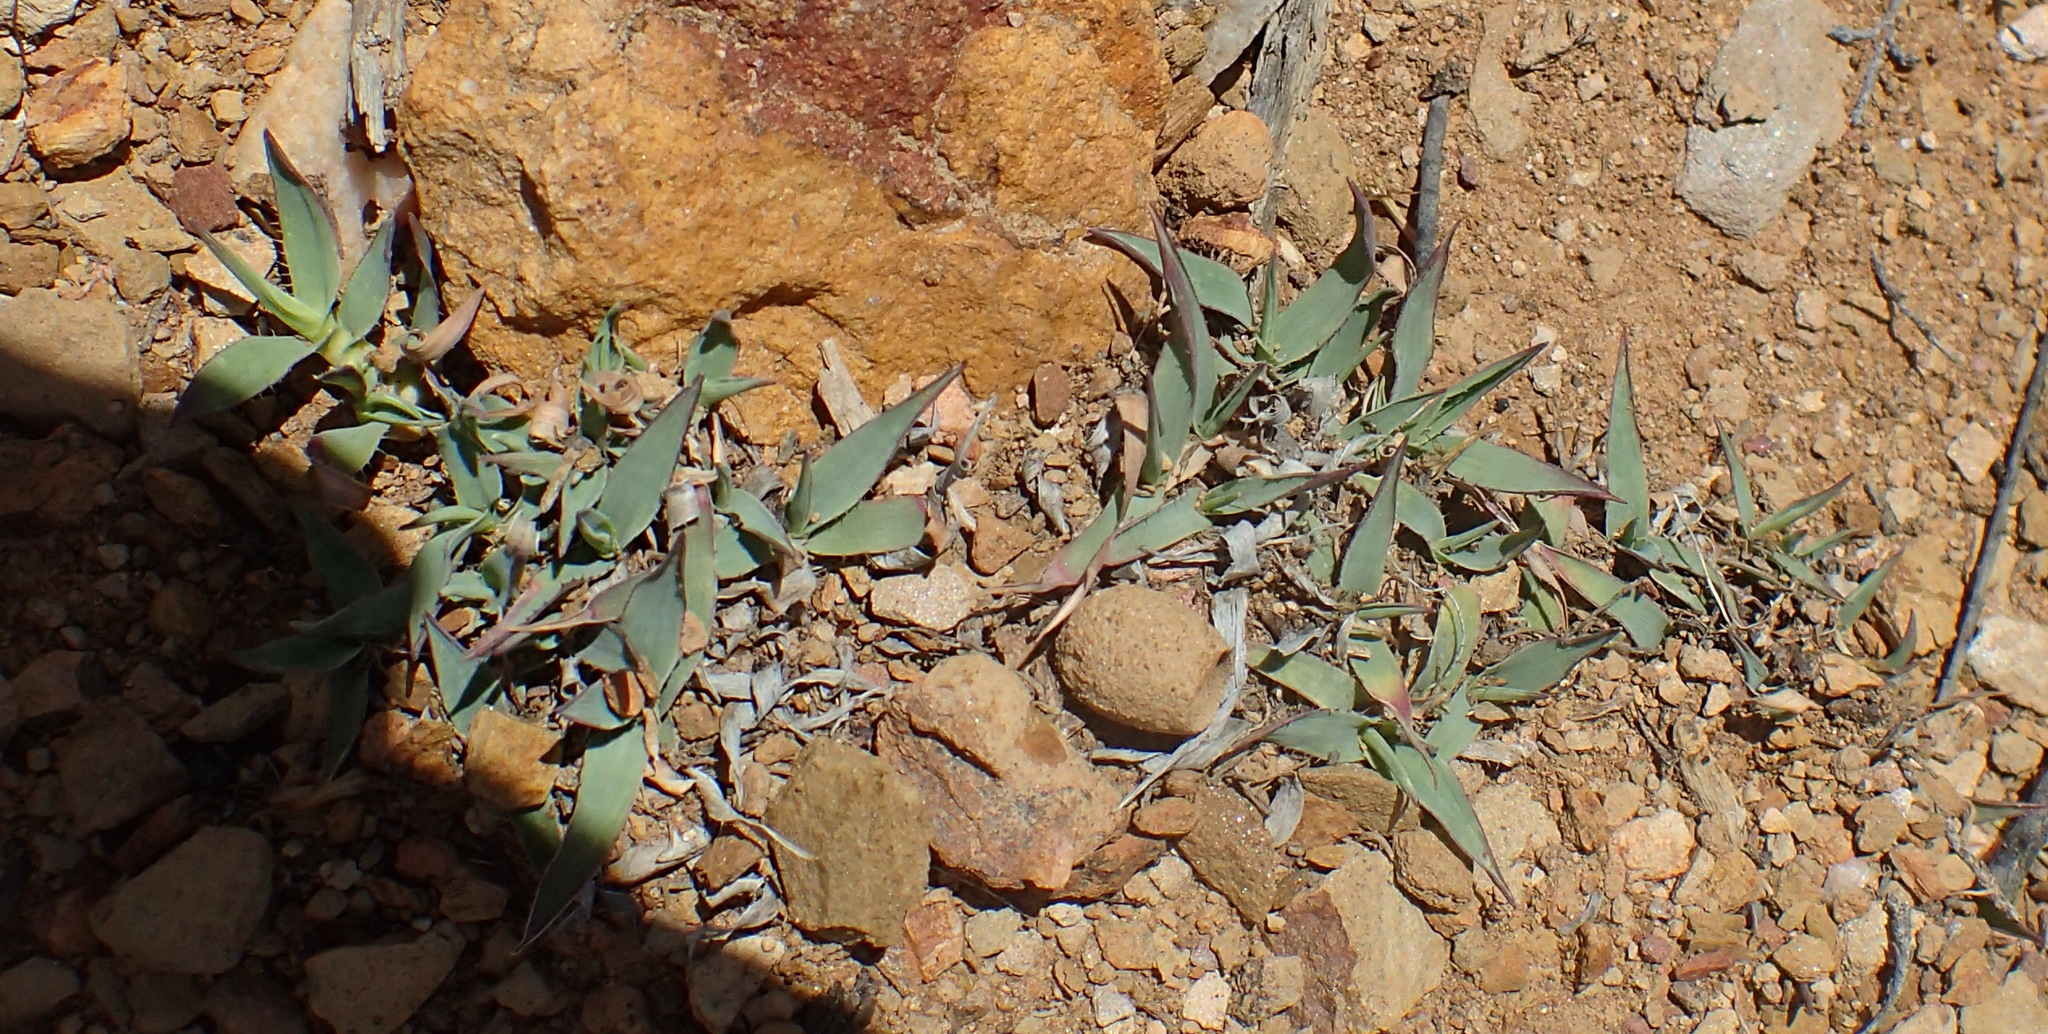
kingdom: Plantae
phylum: Tracheophyta
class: Liliopsida
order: Poales
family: Poaceae
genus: Tragus
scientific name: Tragus berteronianus
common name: African bur-grass
